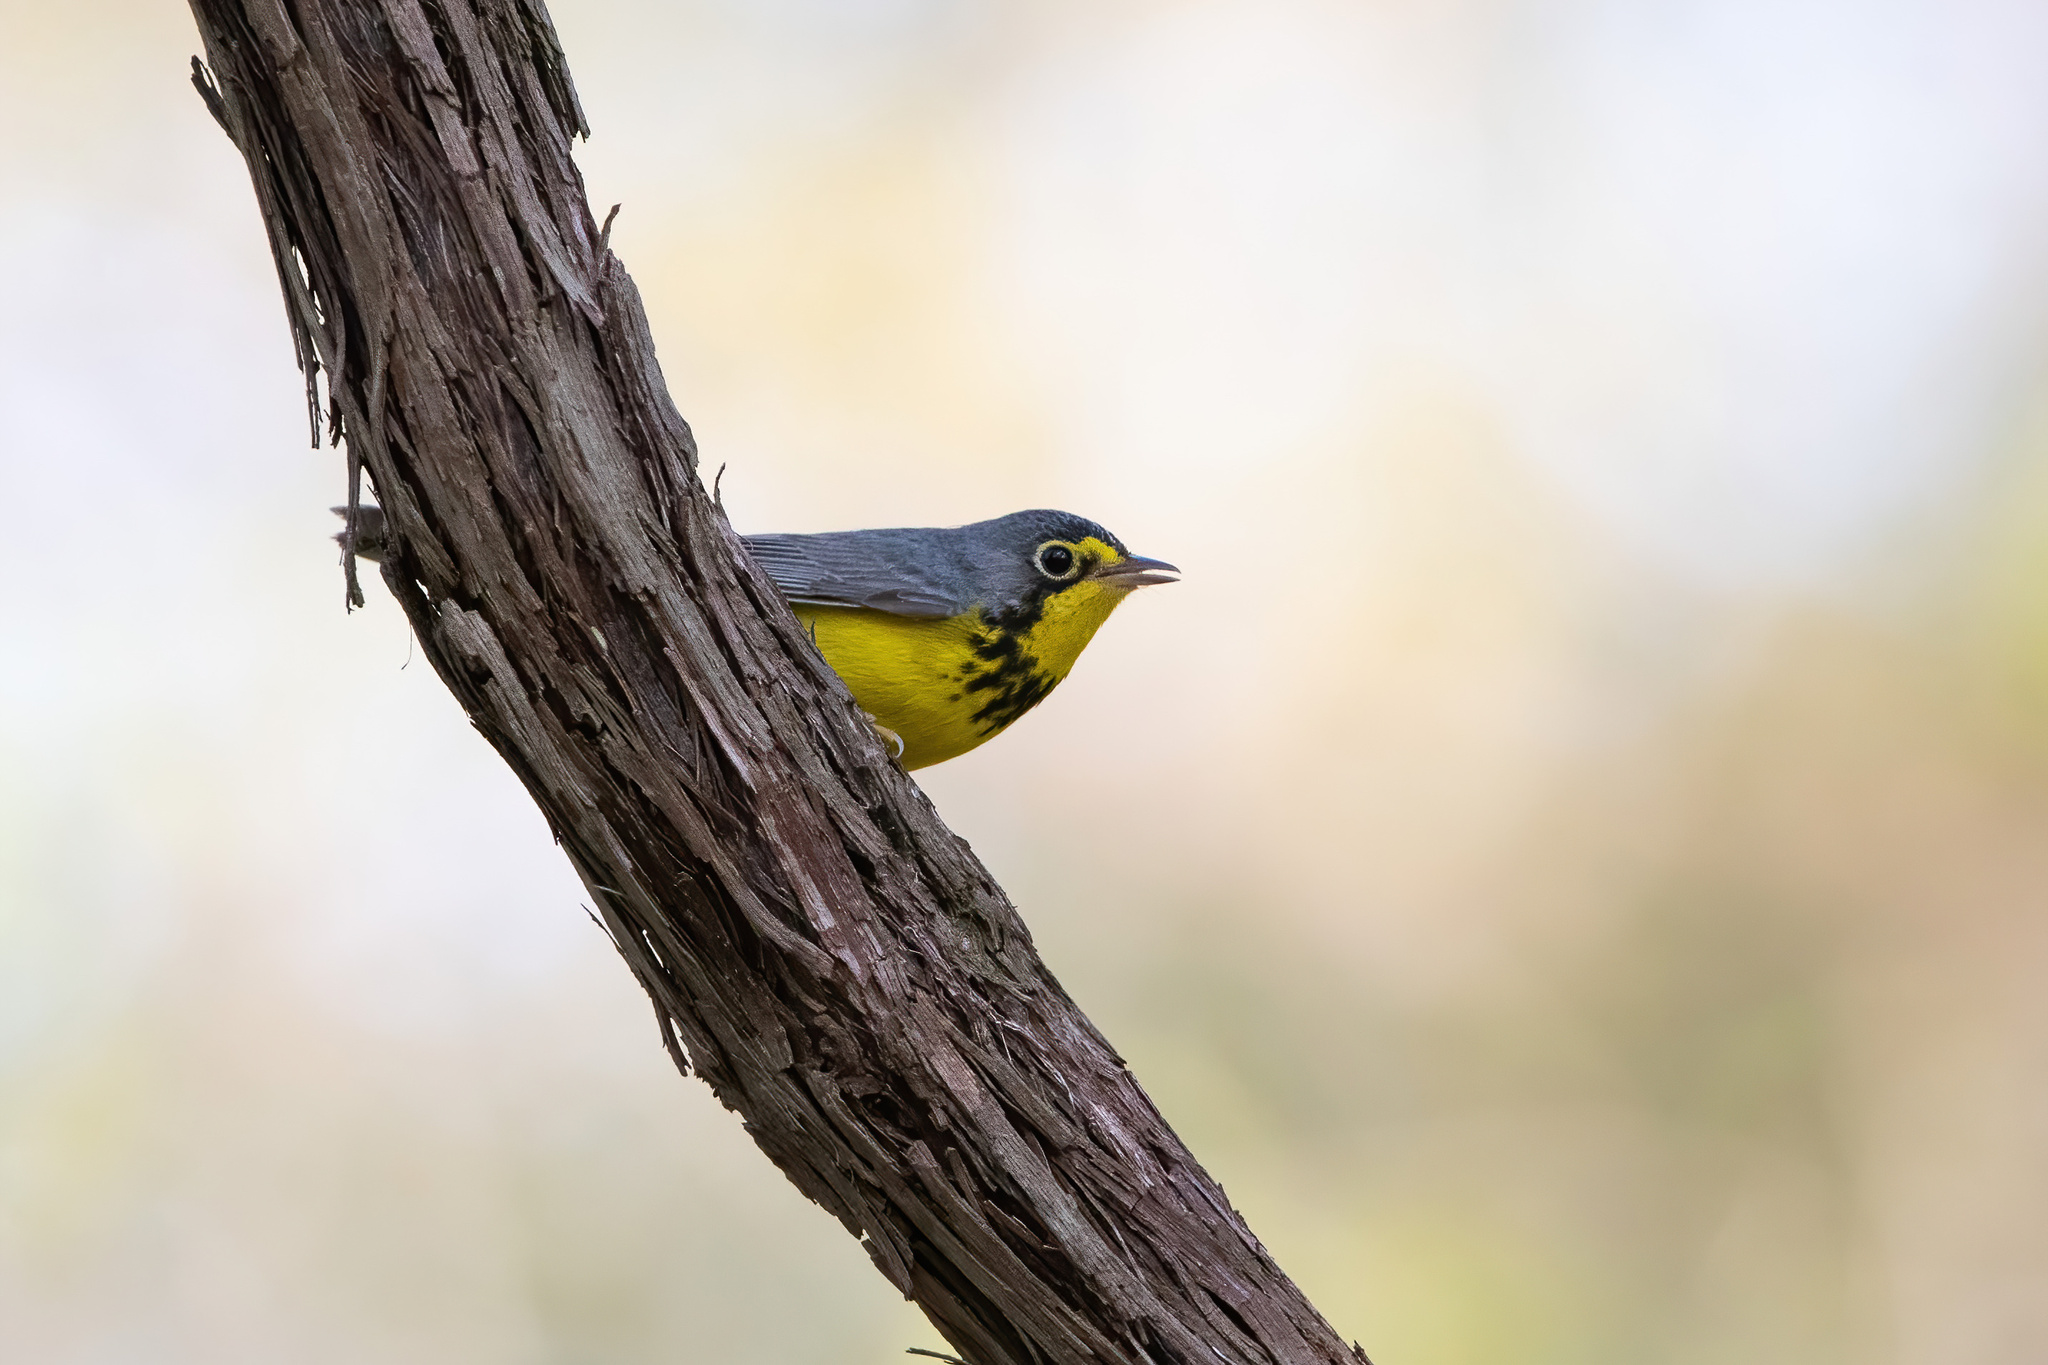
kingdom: Animalia
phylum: Chordata
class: Aves
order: Passeriformes
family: Parulidae
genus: Cardellina
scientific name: Cardellina canadensis
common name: Canada warbler
